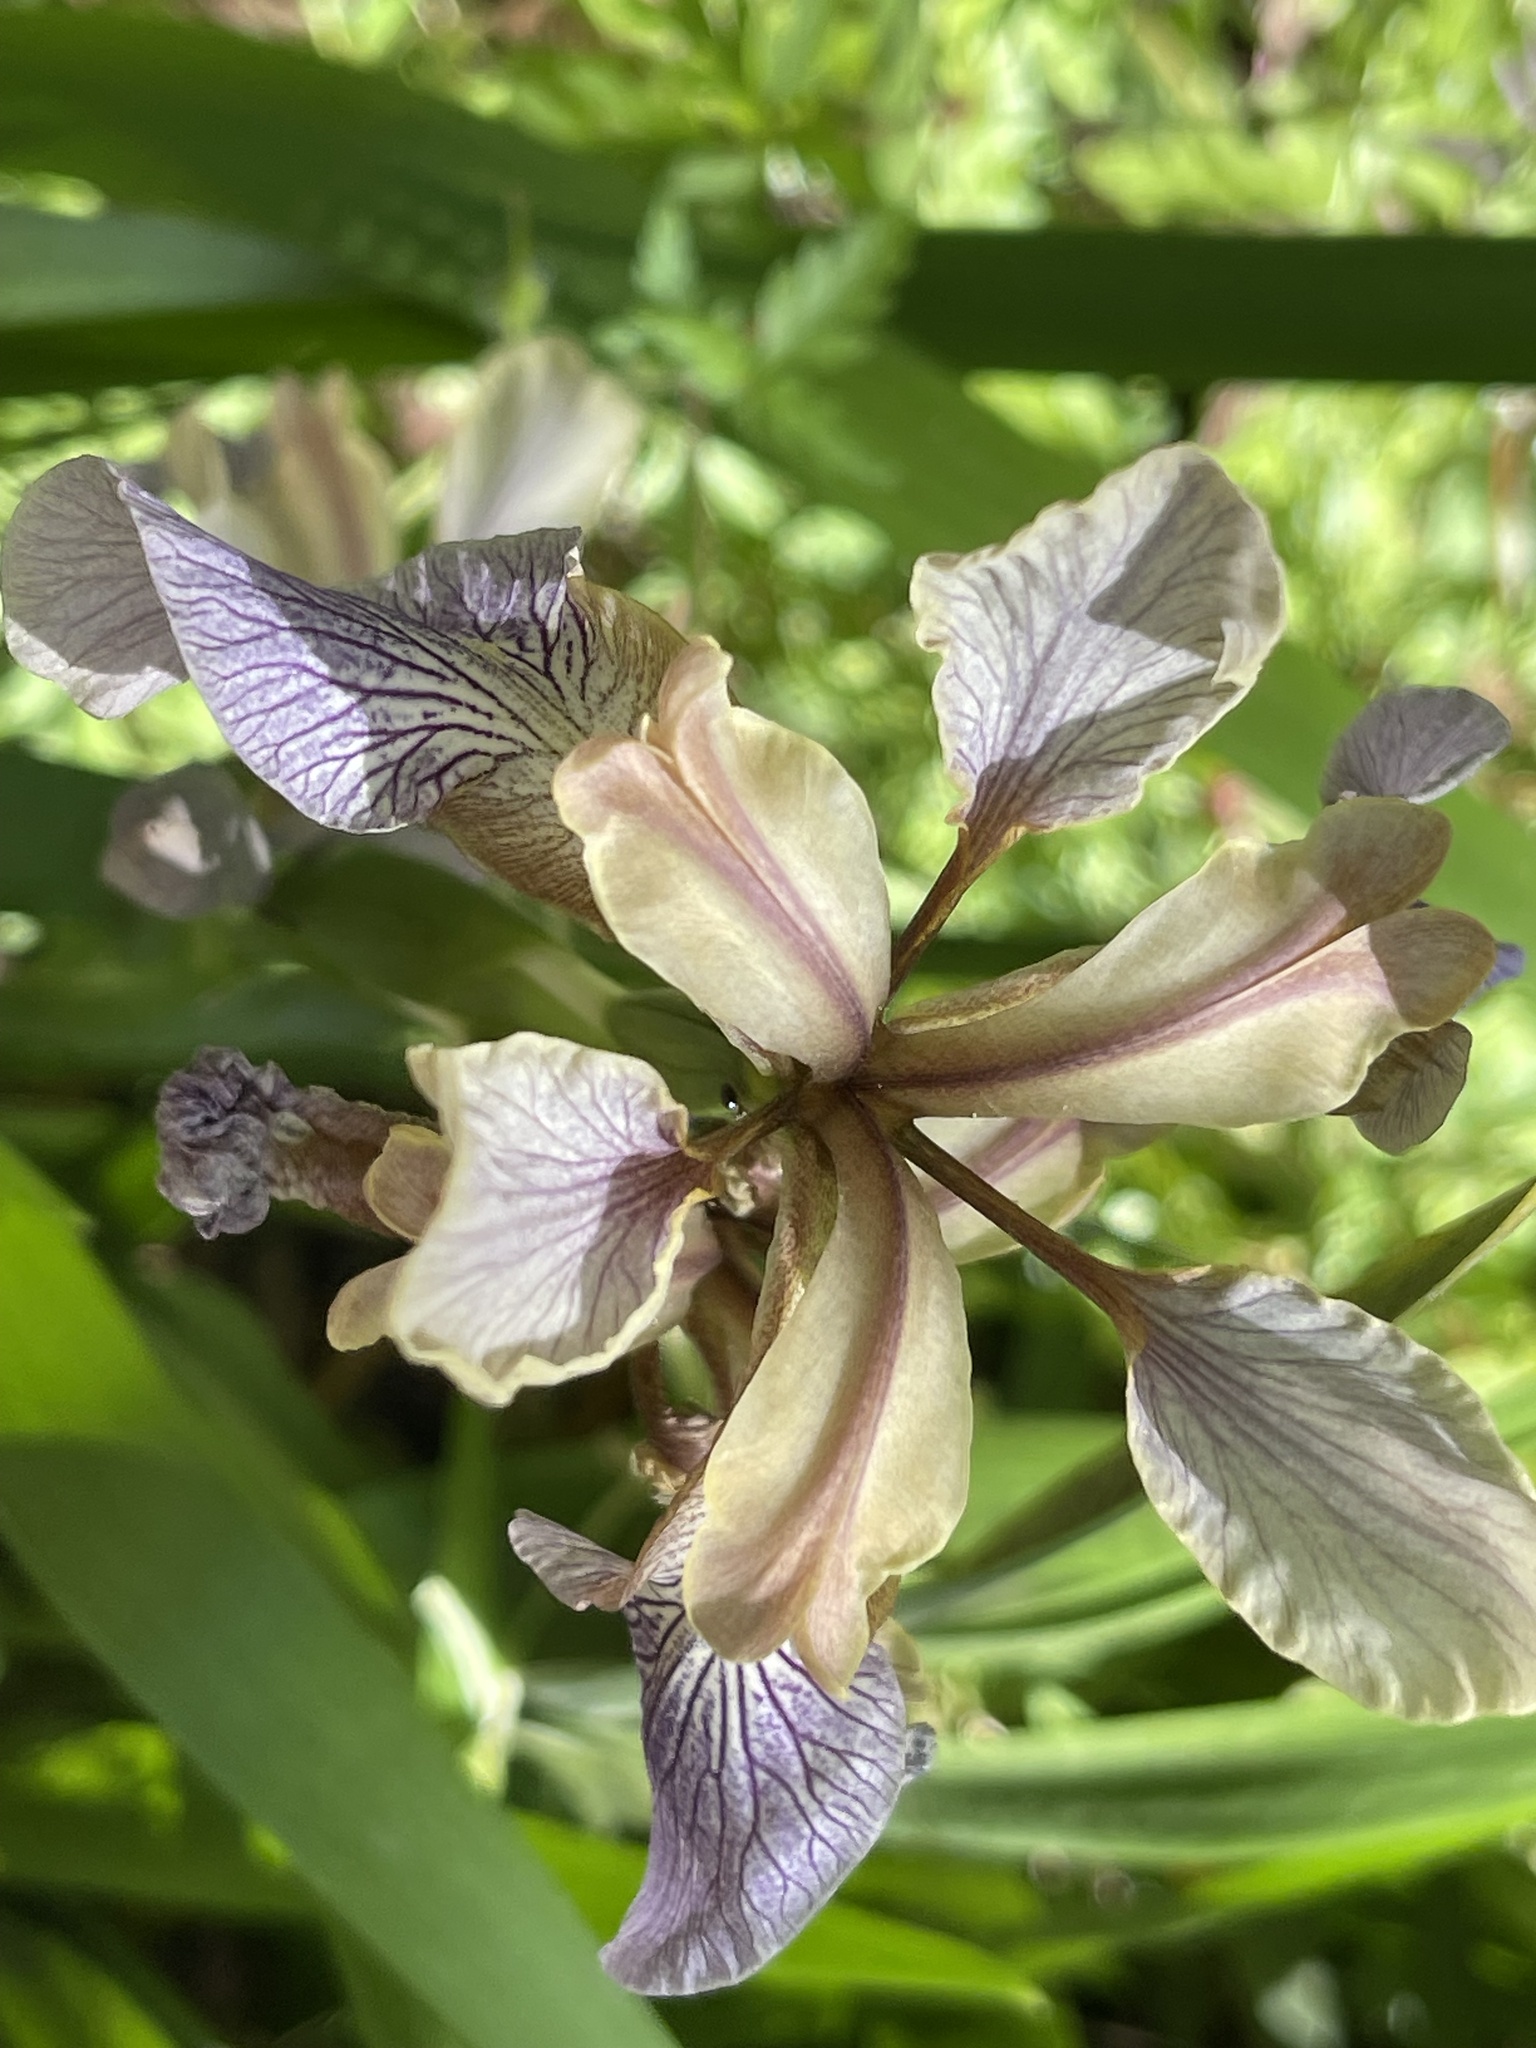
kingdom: Plantae
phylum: Tracheophyta
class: Liliopsida
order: Asparagales
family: Iridaceae
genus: Iris
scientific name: Iris foetidissima
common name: Stinking iris
